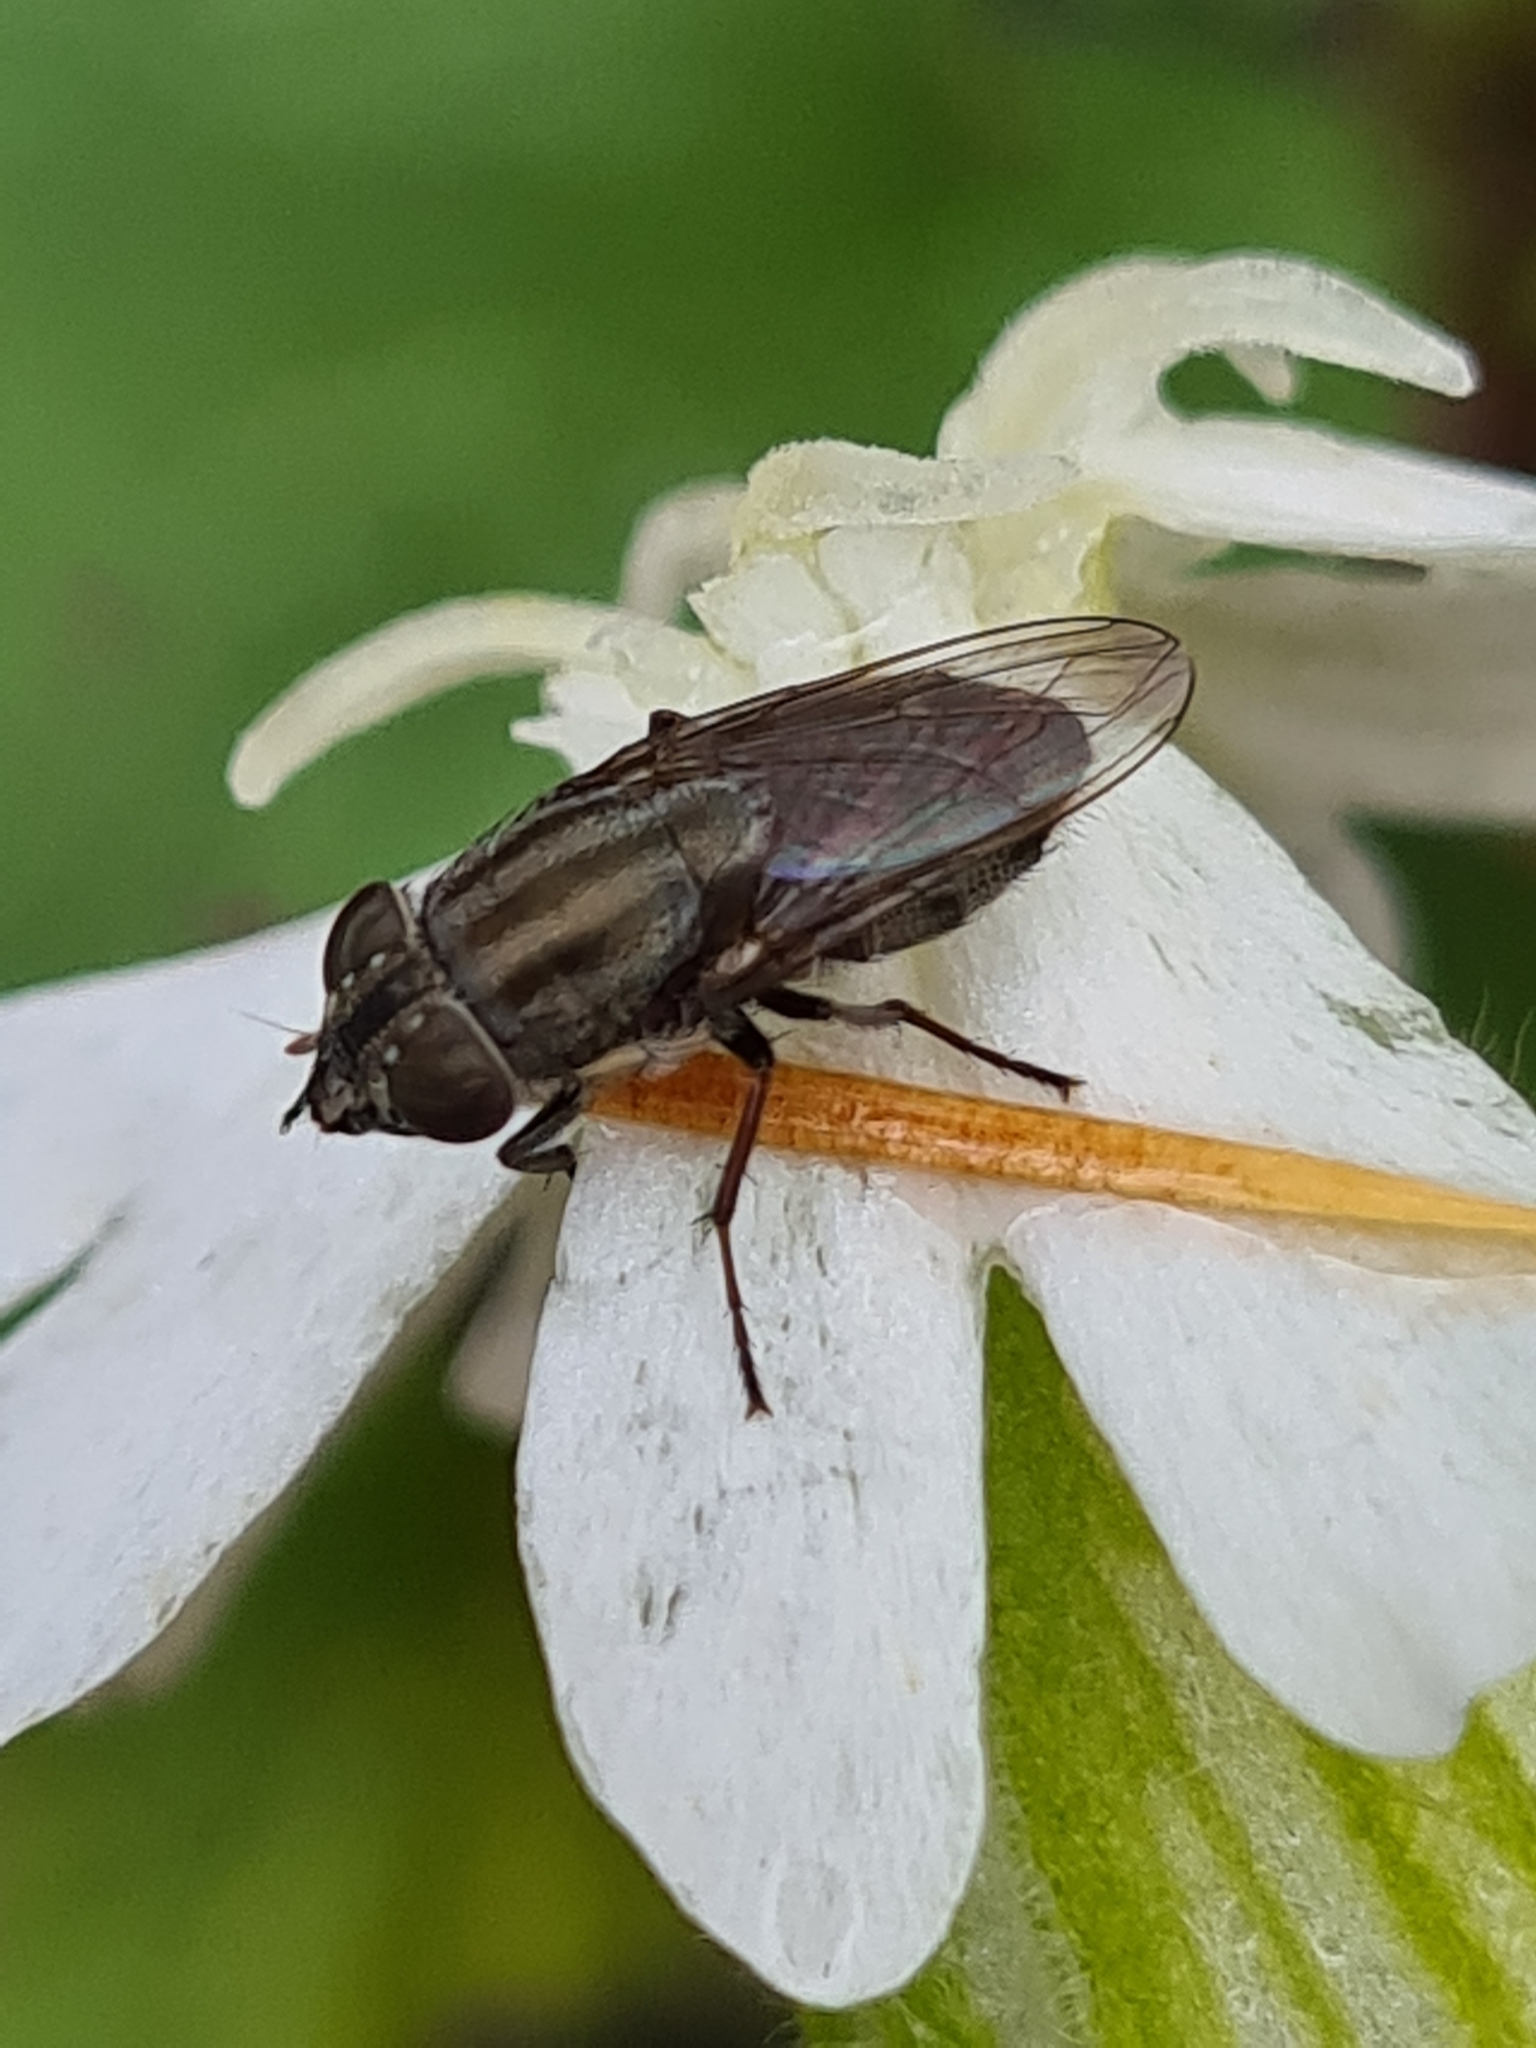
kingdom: Animalia
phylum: Arthropoda
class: Insecta
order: Diptera
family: Calliphoridae
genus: Stomorhina
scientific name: Stomorhina lunata
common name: Locust blowfly
